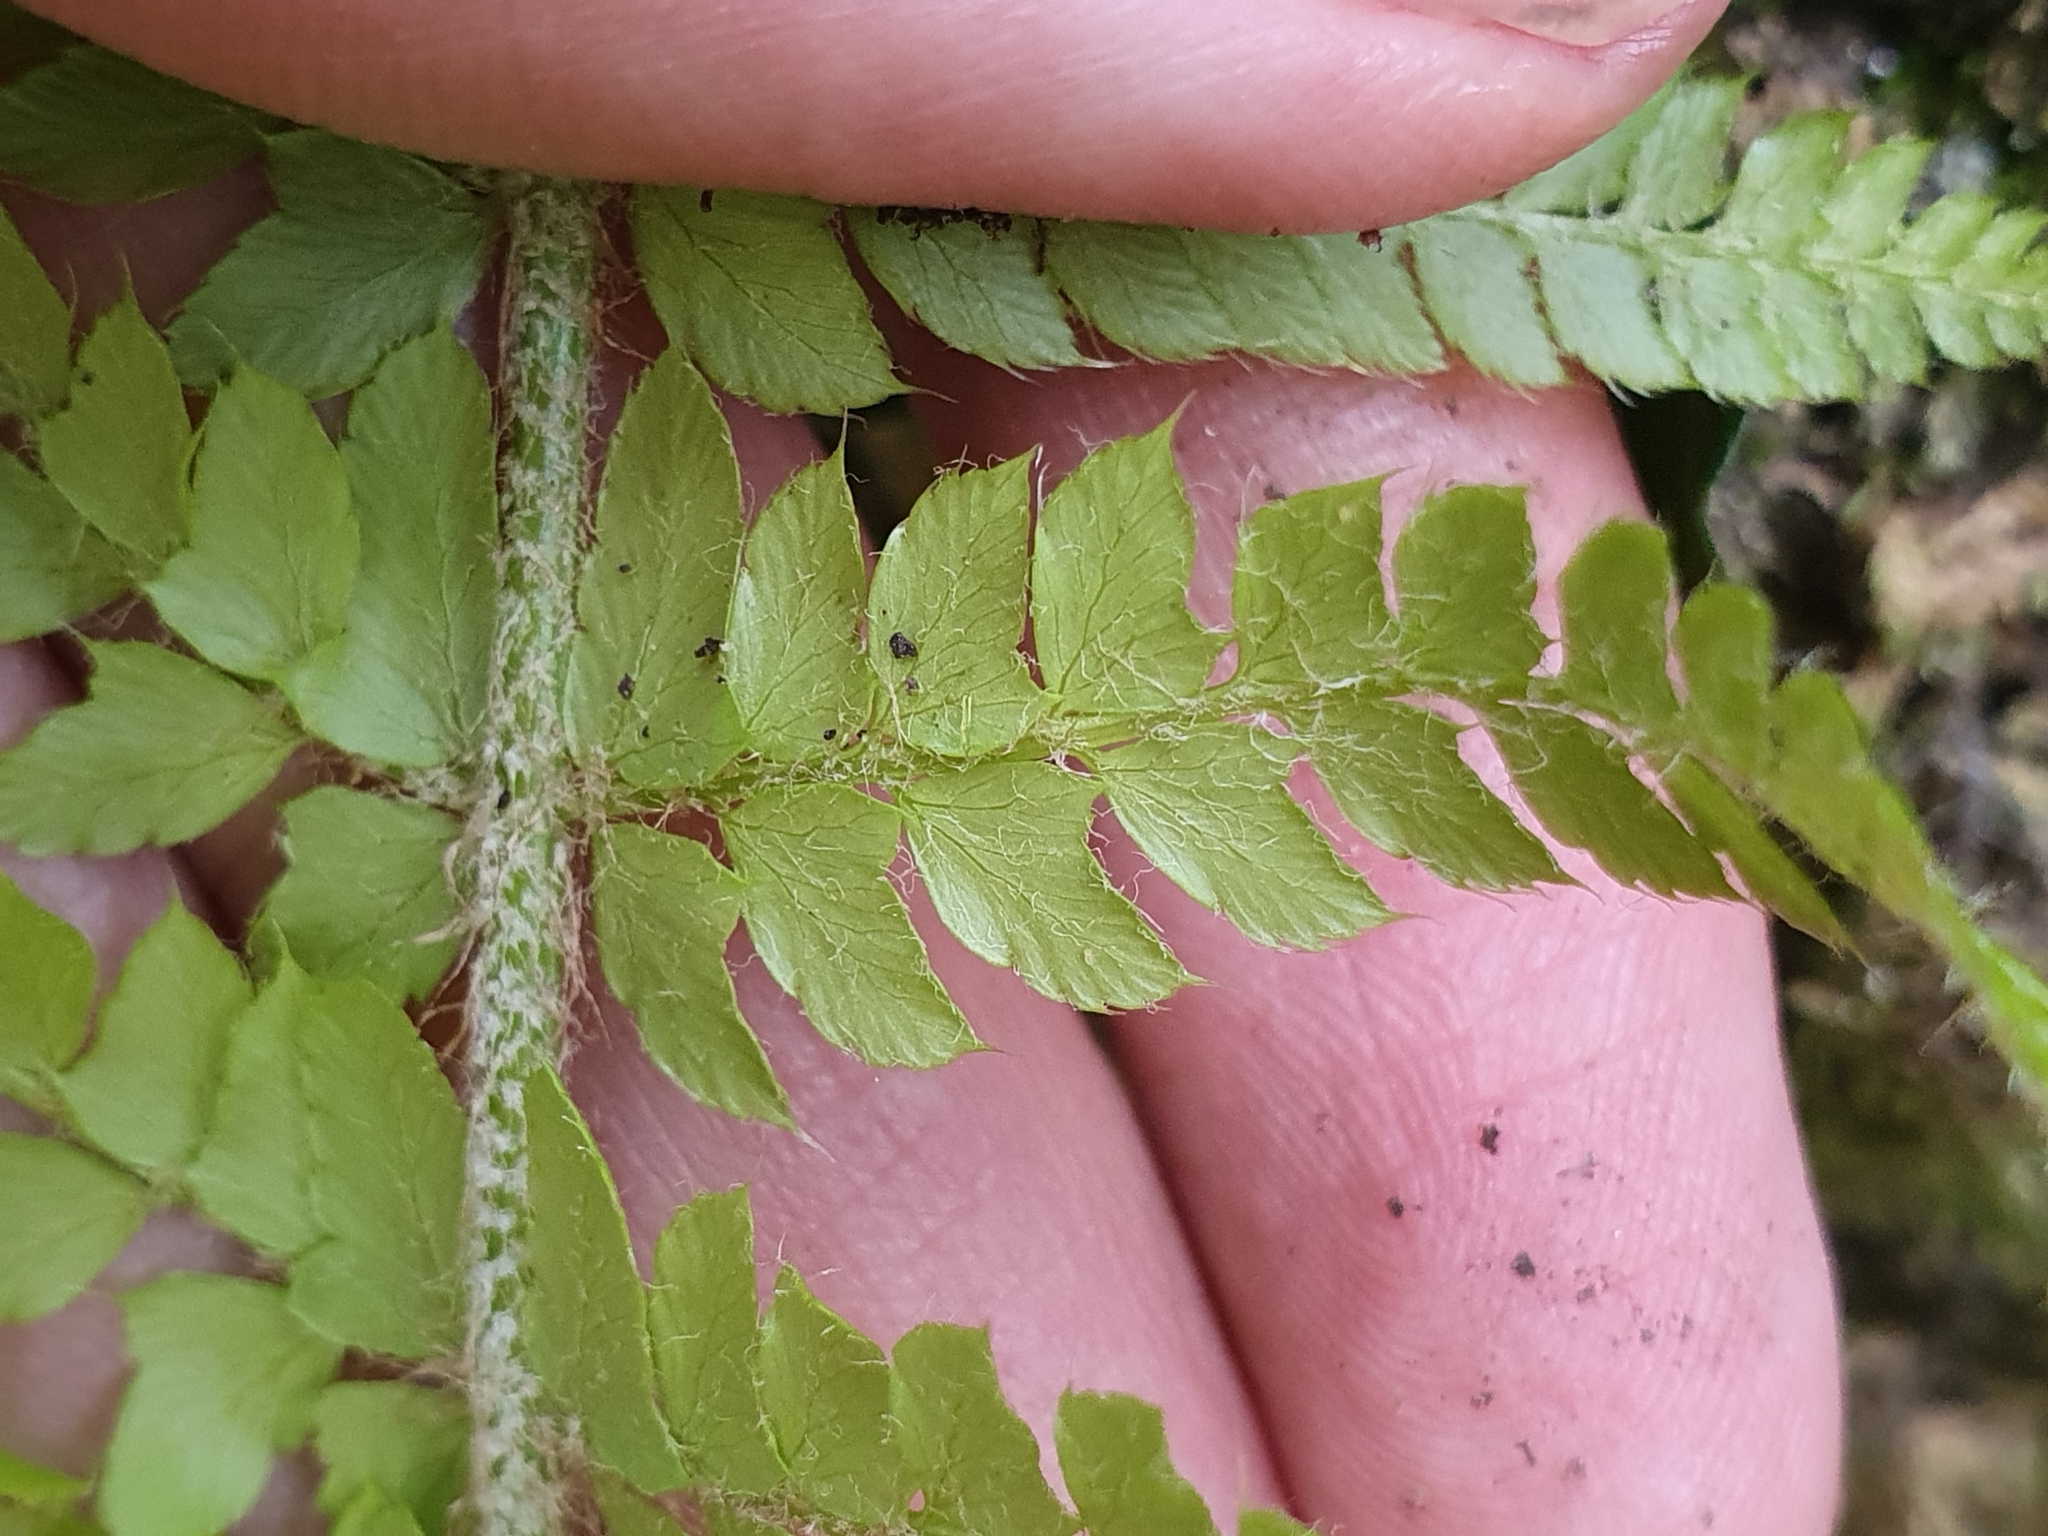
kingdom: Plantae
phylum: Tracheophyta
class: Polypodiopsida
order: Polypodiales
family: Dryopteridaceae
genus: Polystichum
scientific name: Polystichum setiferum
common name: Soft shield-fern
